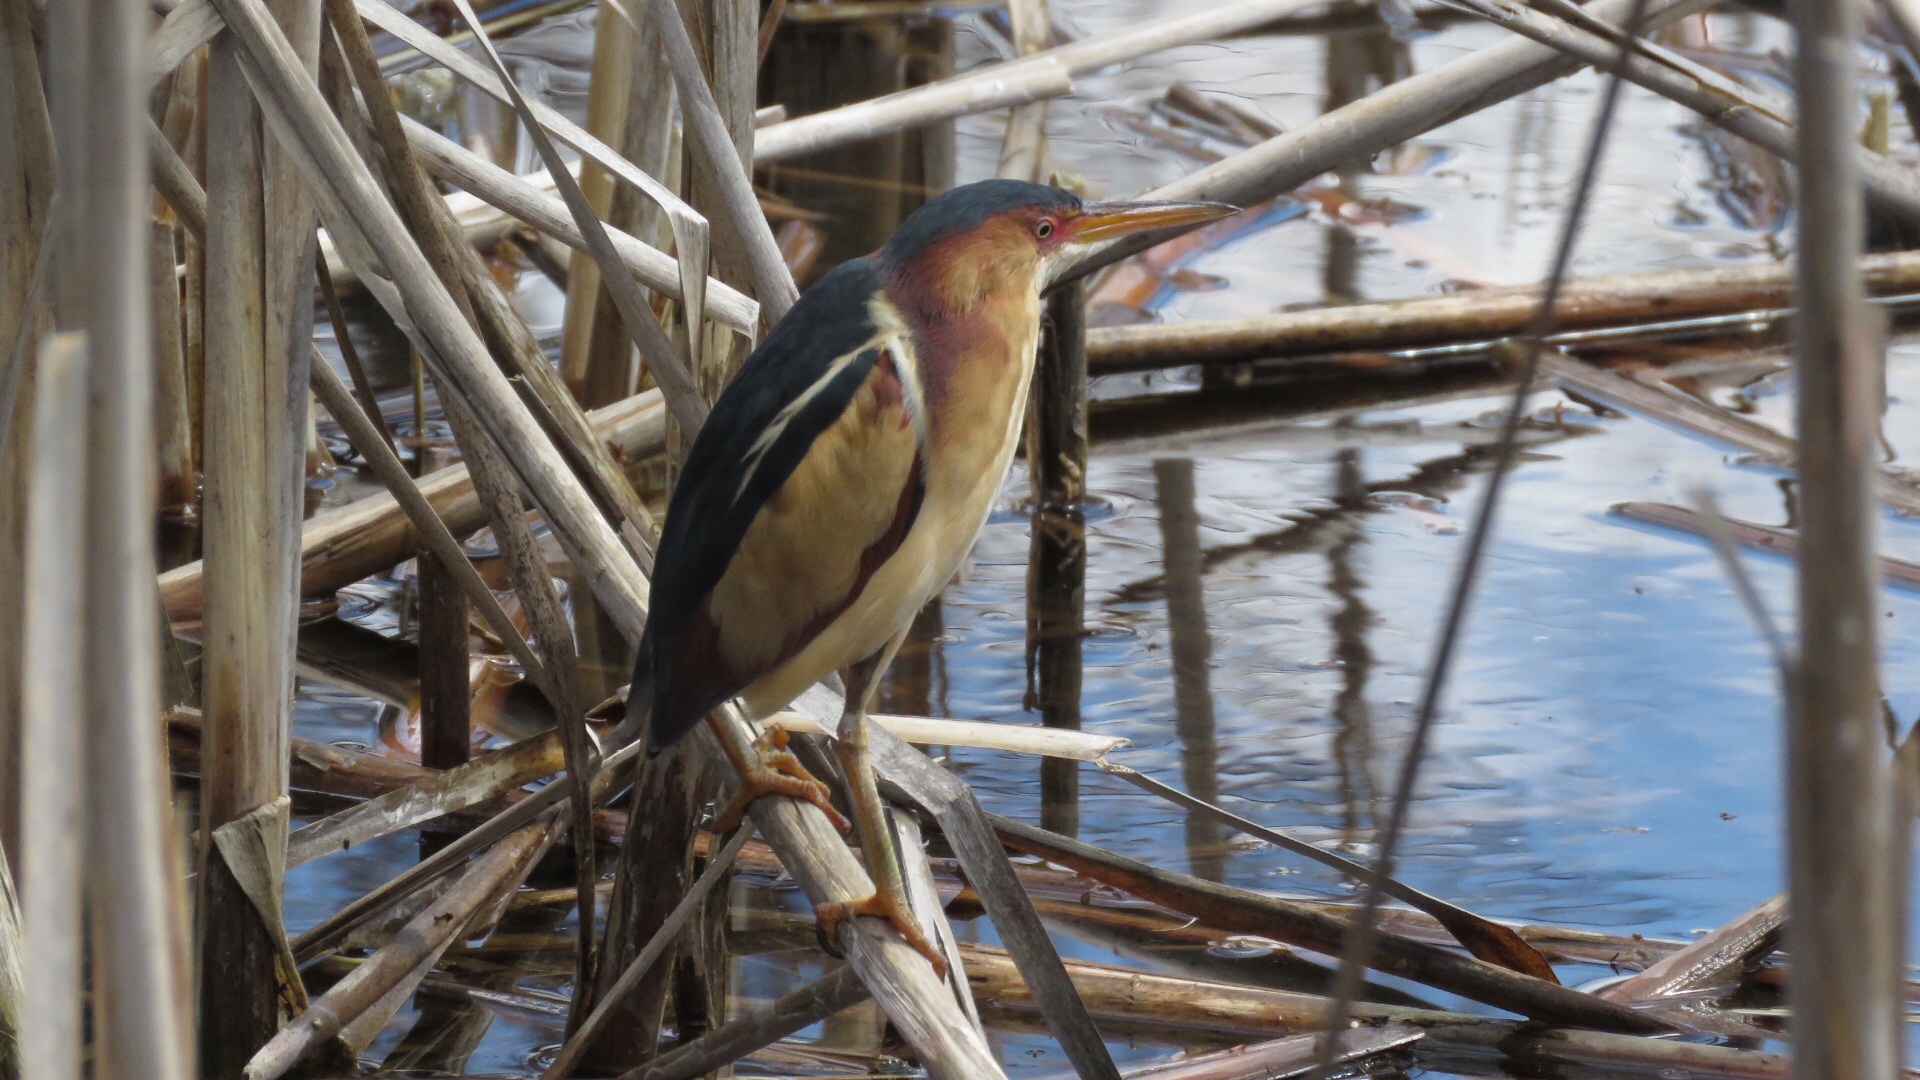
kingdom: Animalia
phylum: Chordata
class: Aves
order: Pelecaniformes
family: Ardeidae
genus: Ixobrychus
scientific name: Ixobrychus exilis
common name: Least bittern
